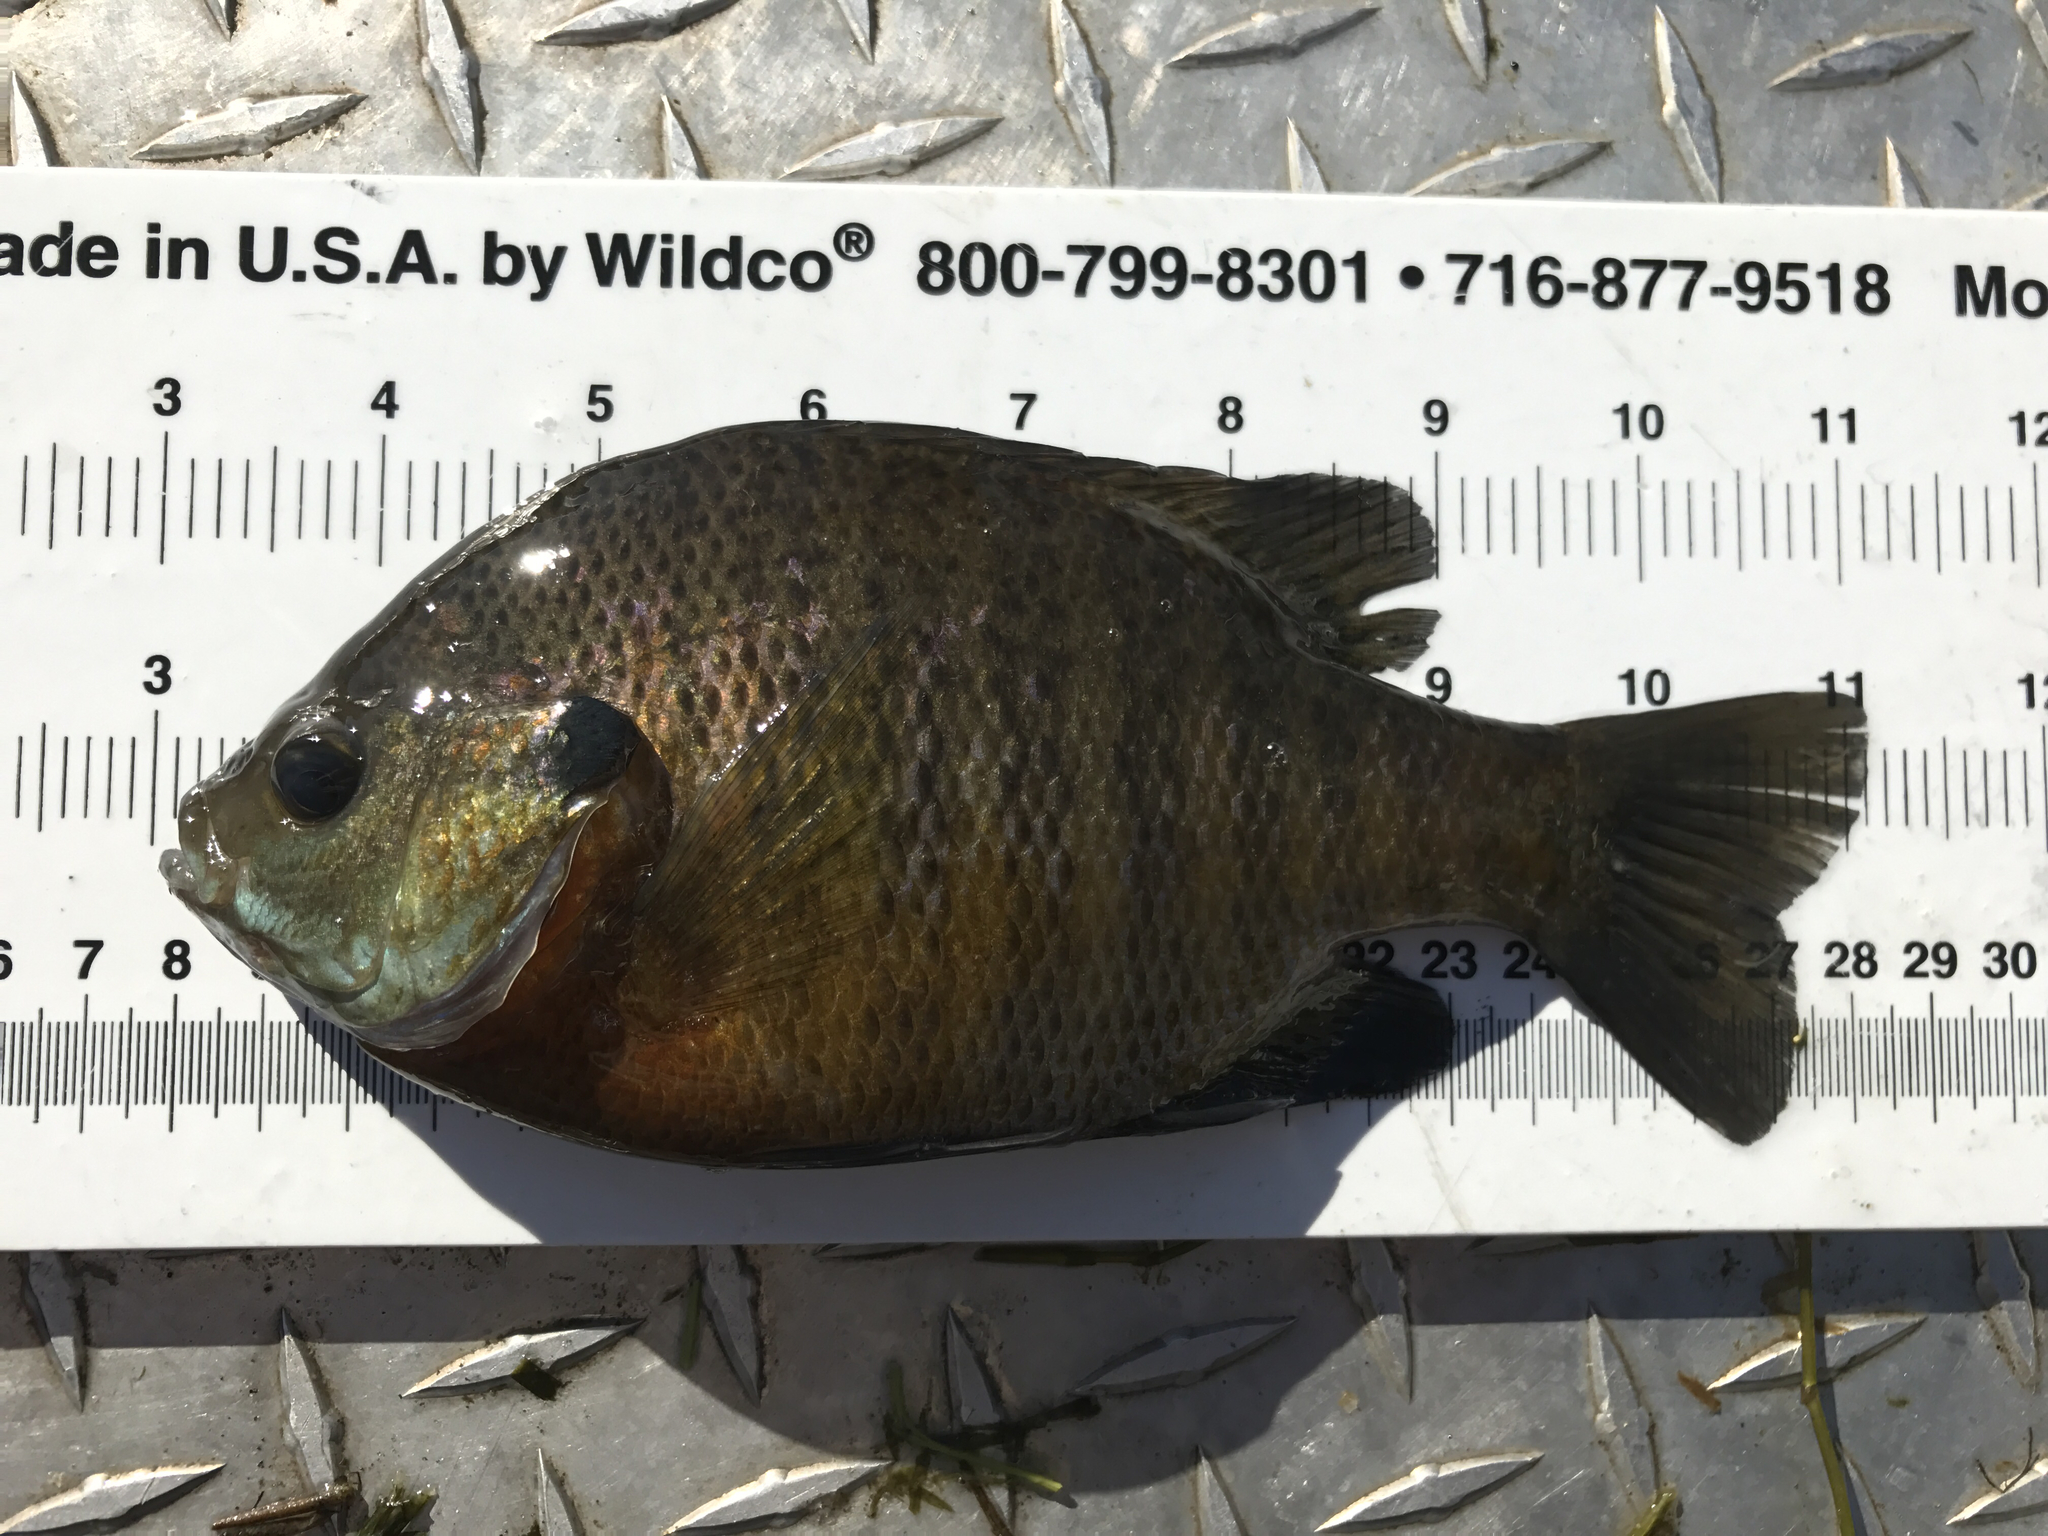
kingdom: Animalia
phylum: Chordata
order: Perciformes
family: Centrarchidae
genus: Lepomis
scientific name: Lepomis macrochirus
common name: Bluegill
